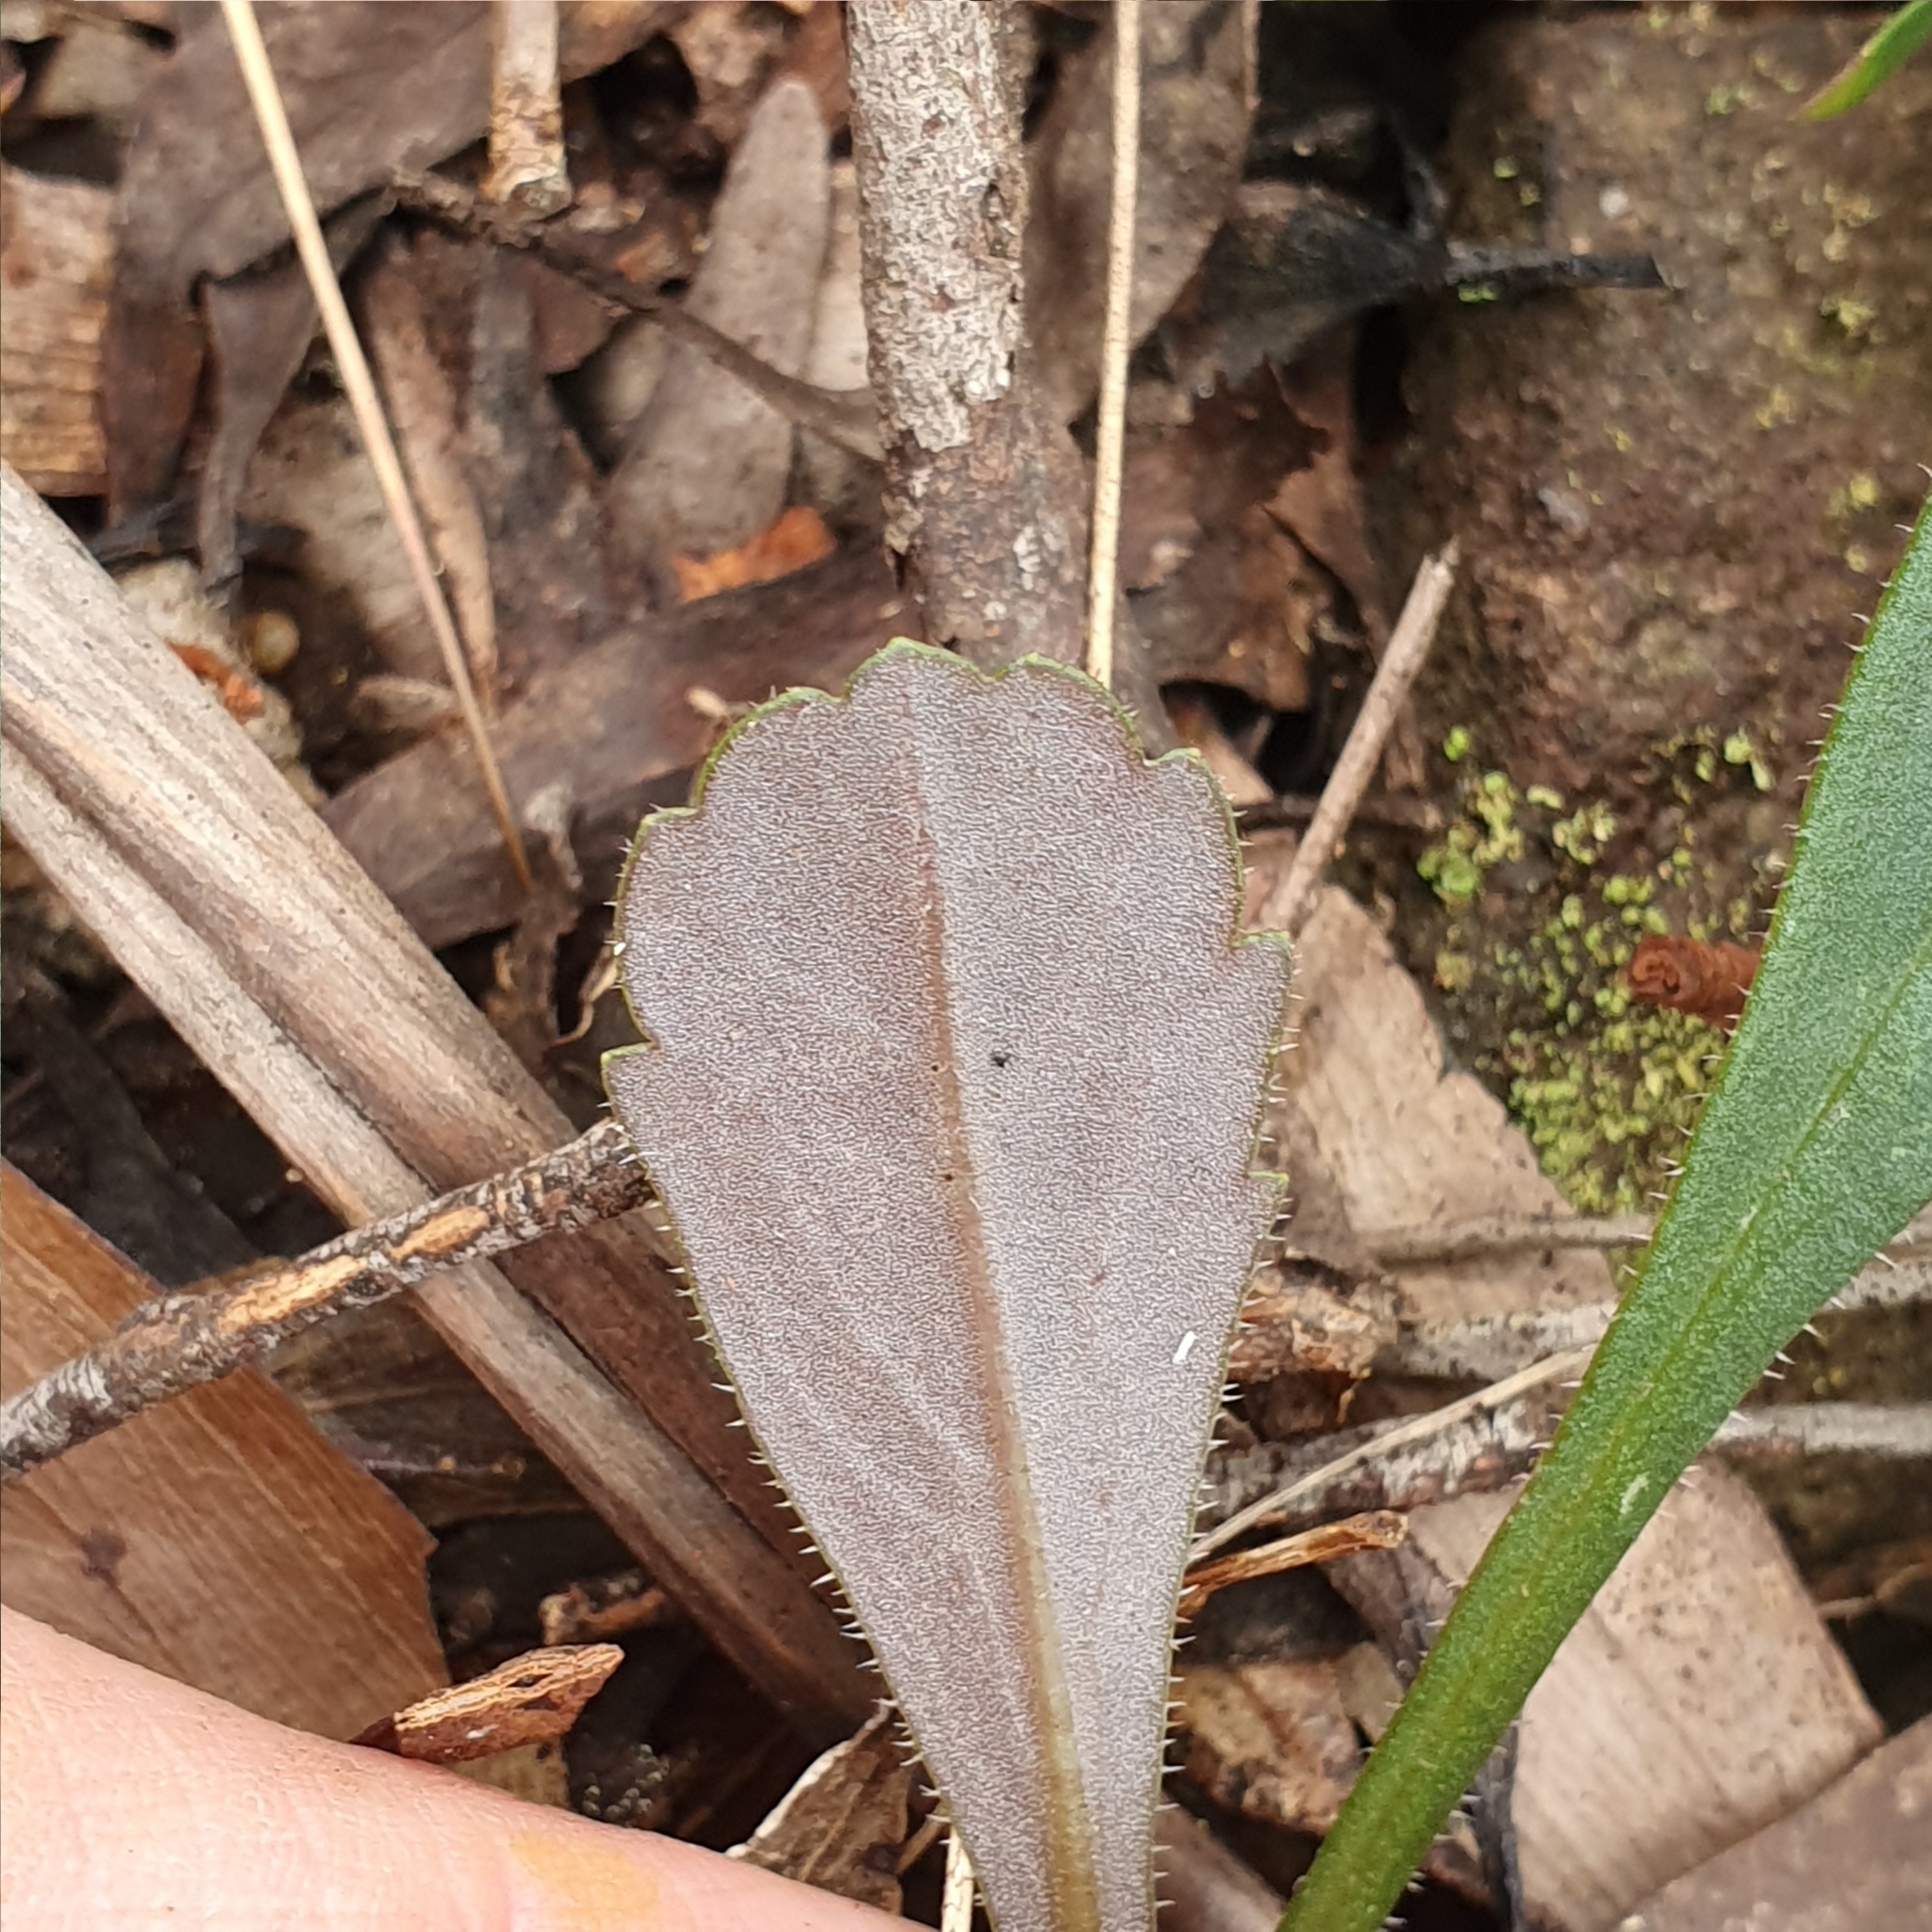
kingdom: Plantae
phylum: Tracheophyta
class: Magnoliopsida
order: Asterales
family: Asteraceae
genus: Lagenophora
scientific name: Lagenophora sublyrata ter
